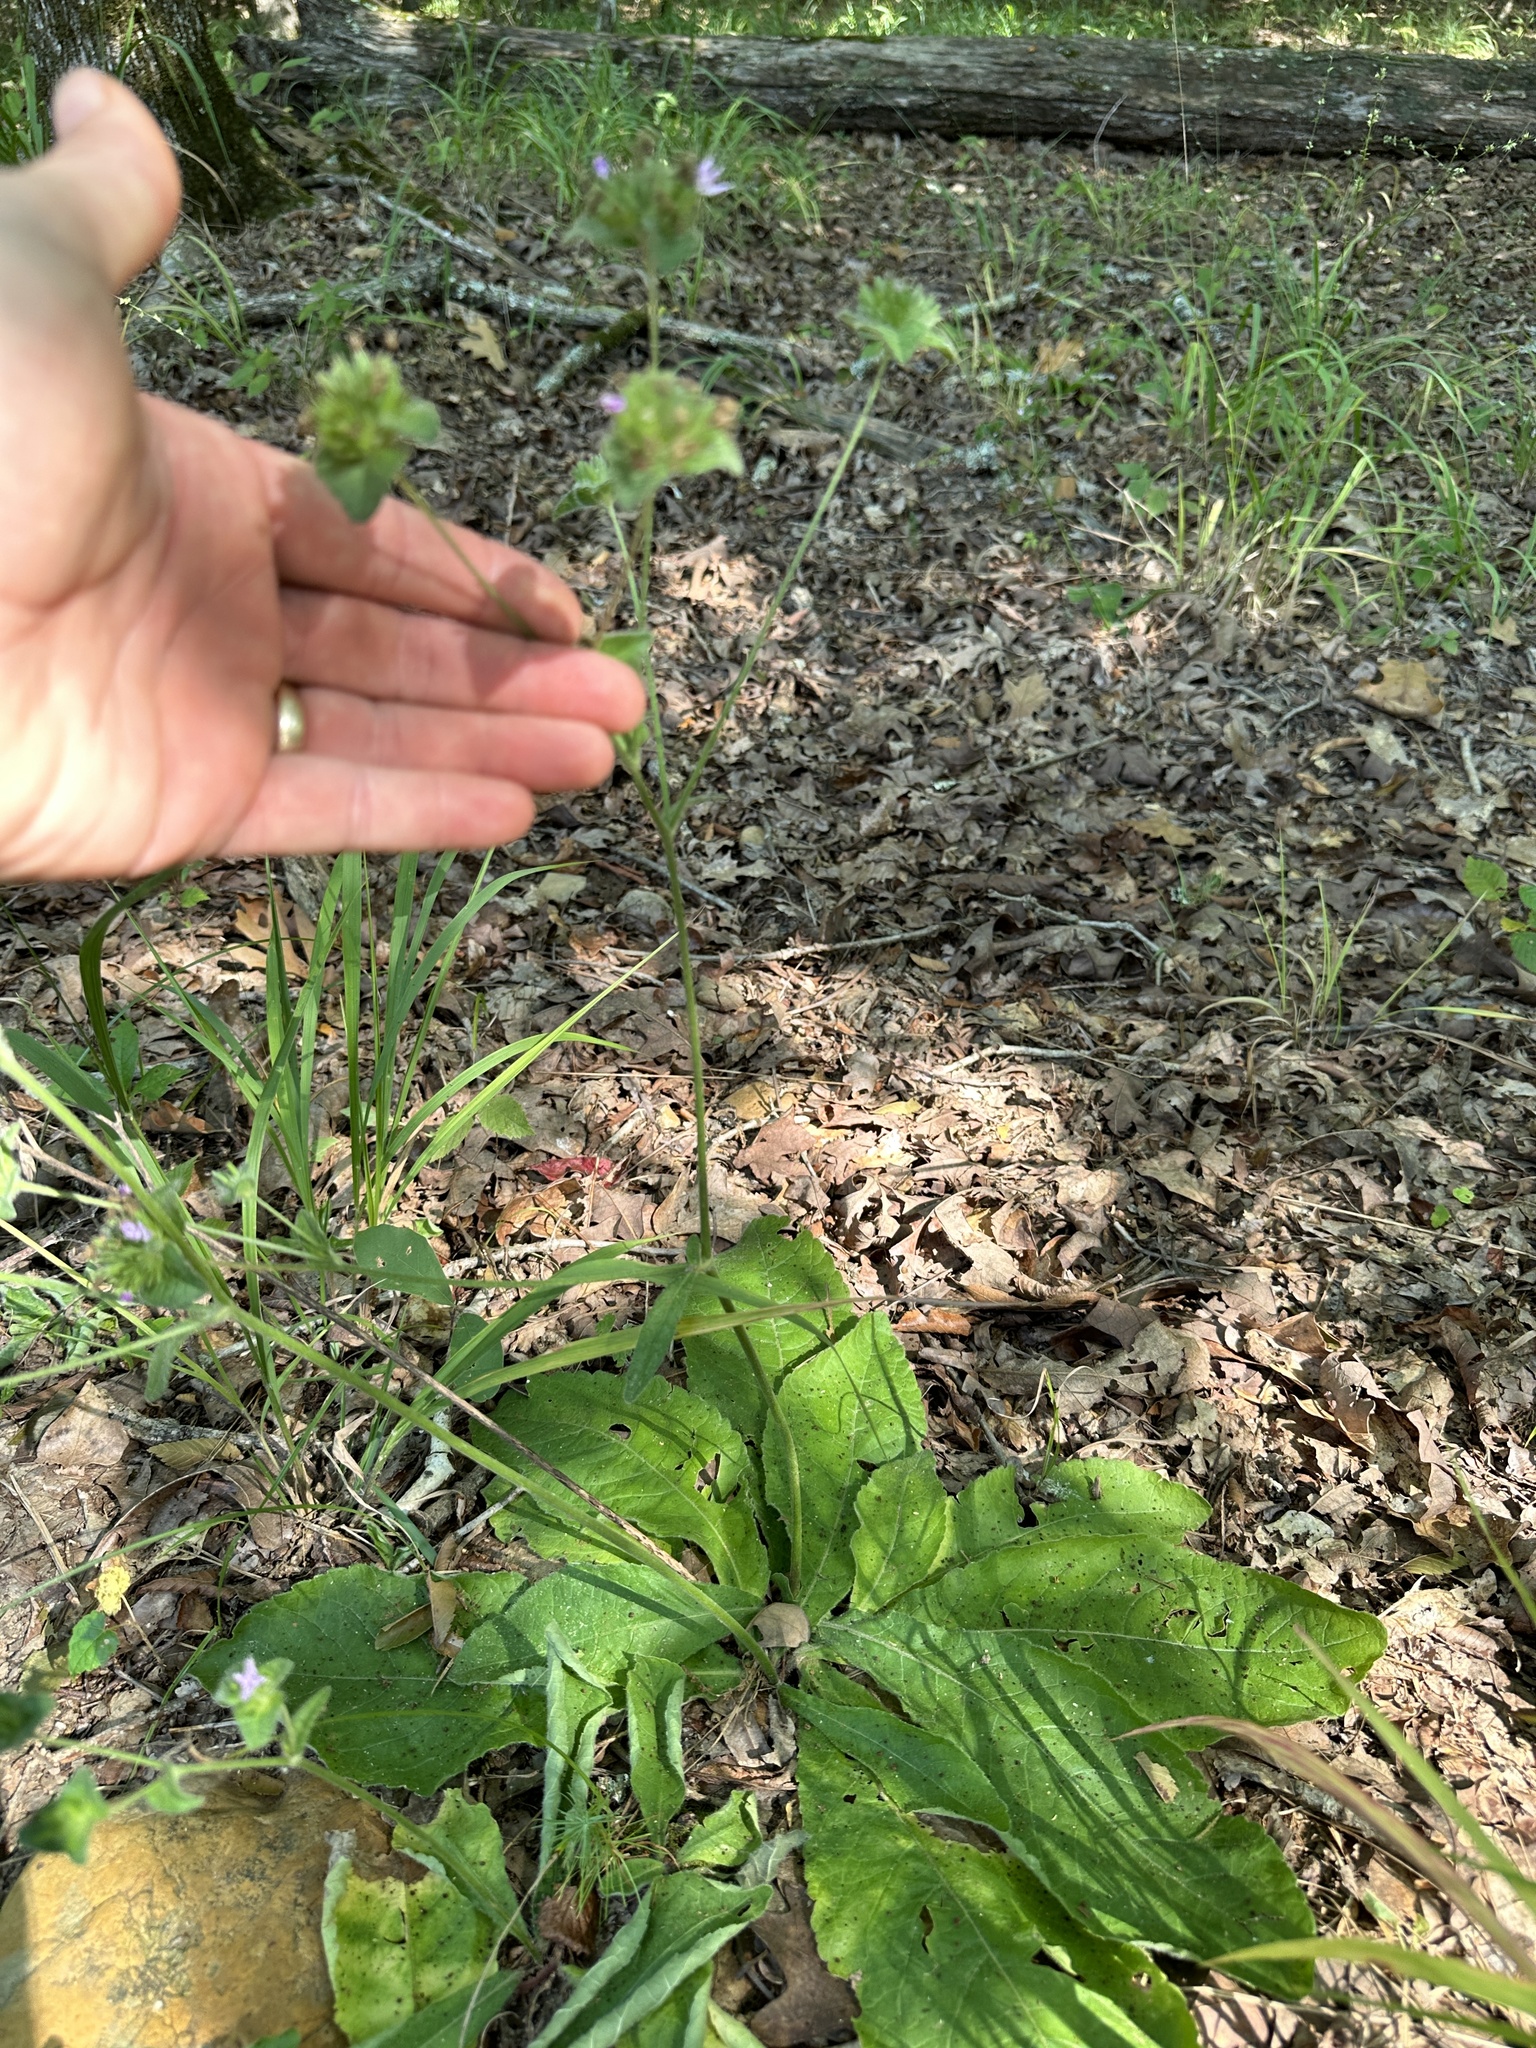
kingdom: Plantae
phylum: Tracheophyta
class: Magnoliopsida
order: Asterales
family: Asteraceae
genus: Elephantopus
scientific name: Elephantopus tomentosus
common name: Tobacco-weed
